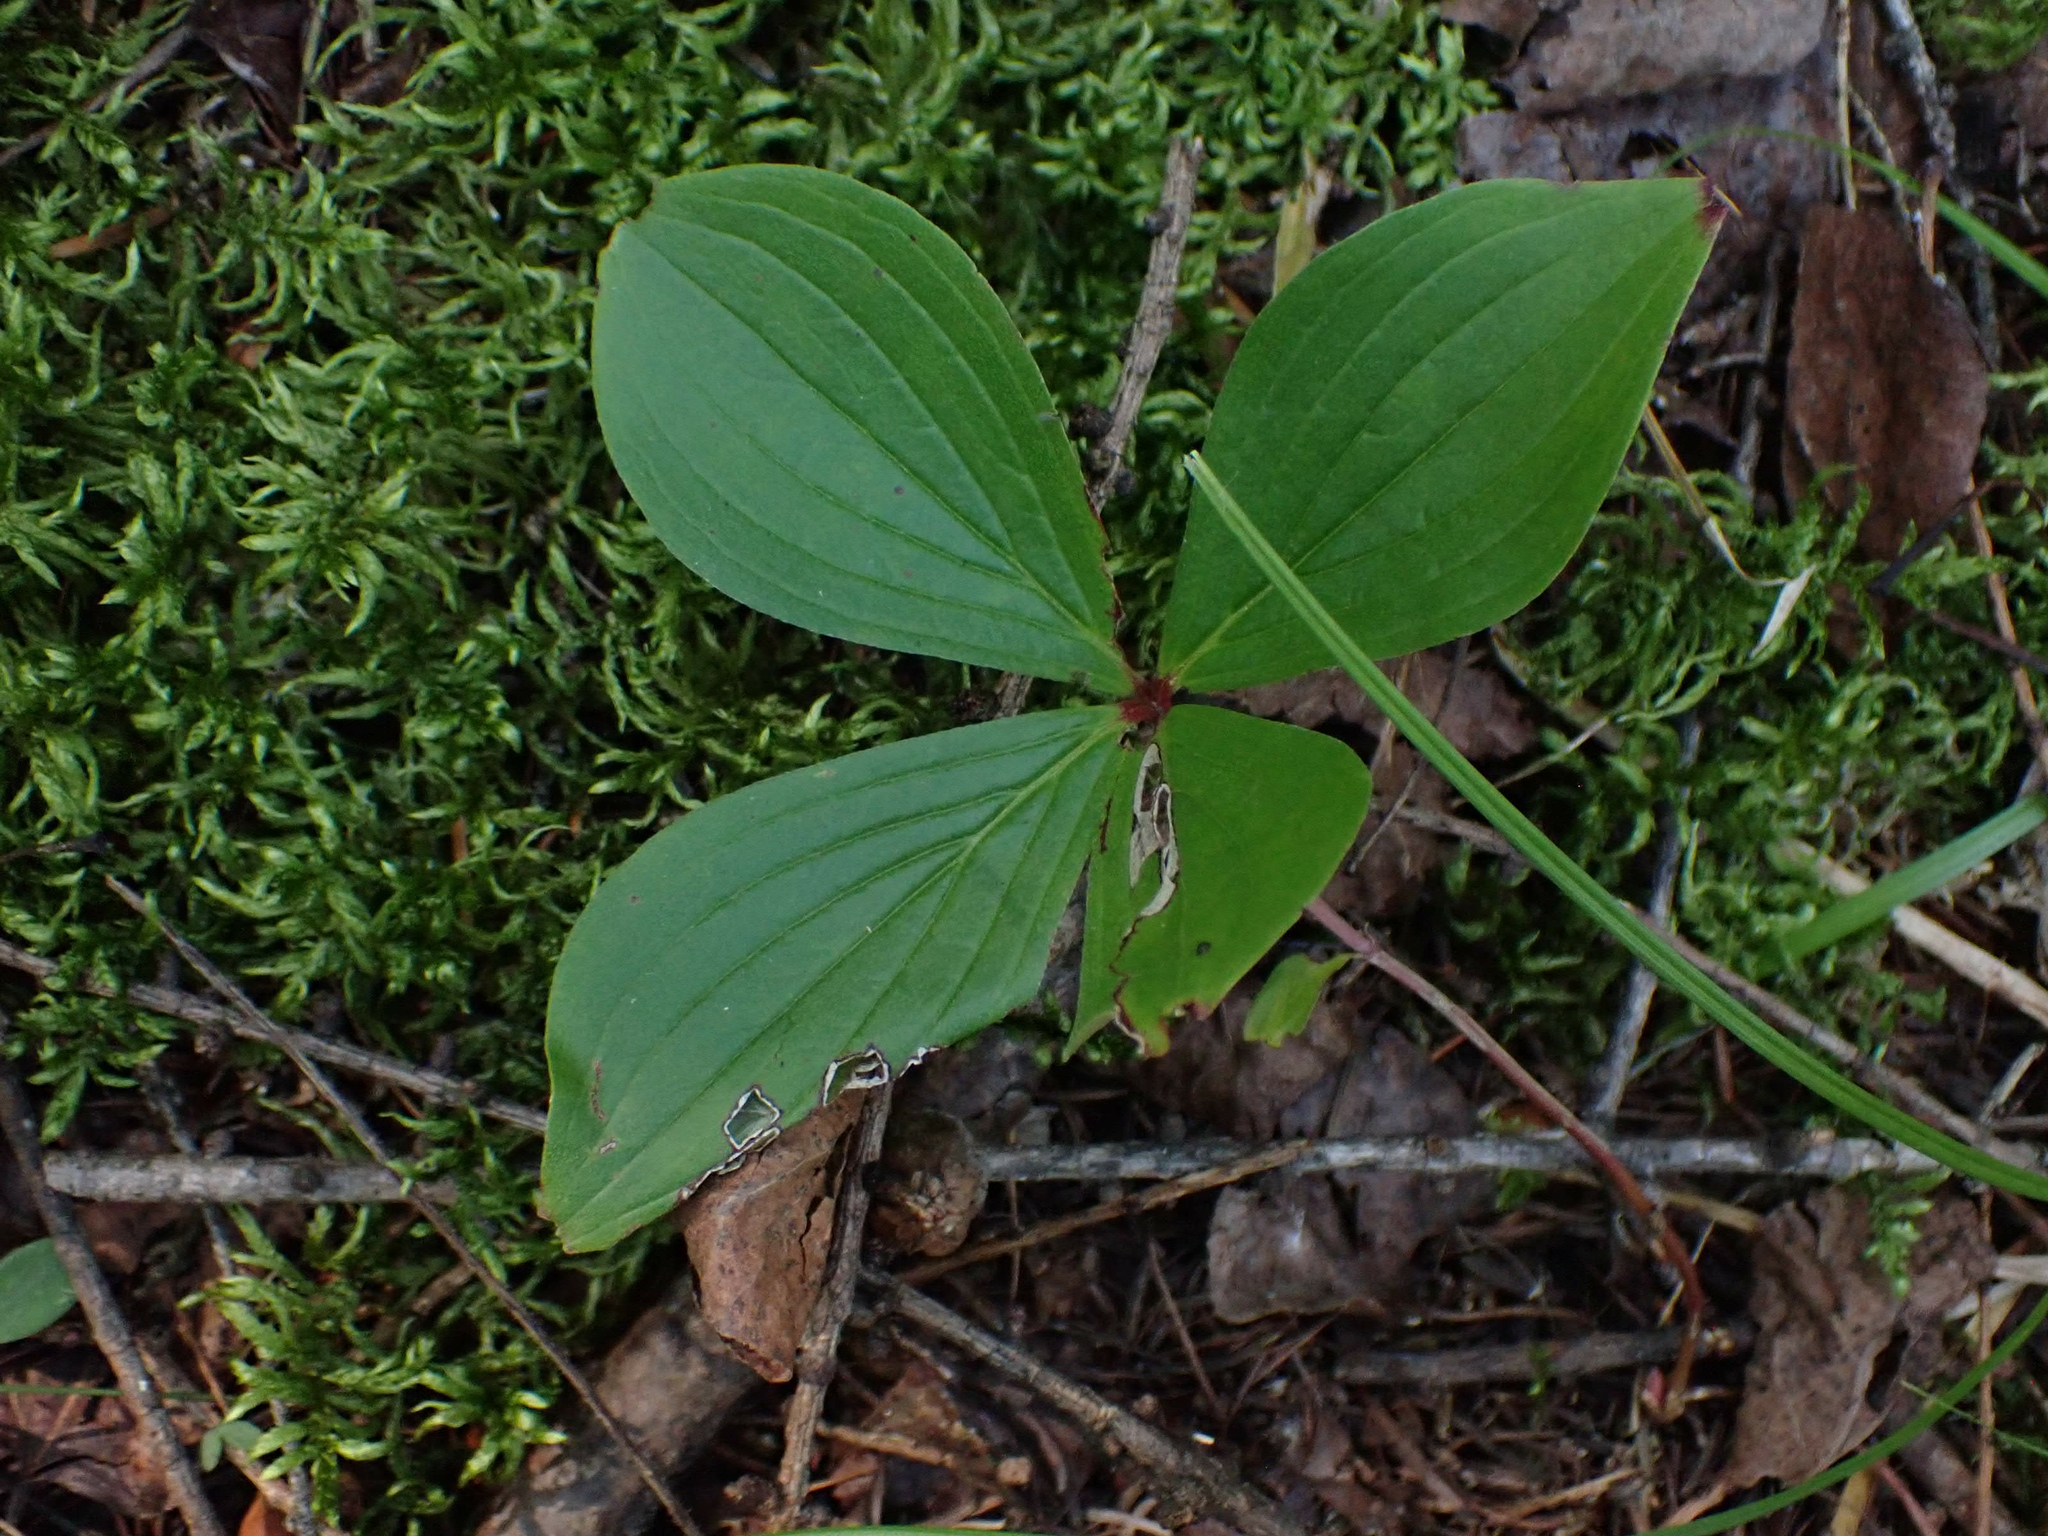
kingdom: Plantae
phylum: Tracheophyta
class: Magnoliopsida
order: Cornales
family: Cornaceae
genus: Cornus
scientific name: Cornus canadensis
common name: Creeping dogwood
